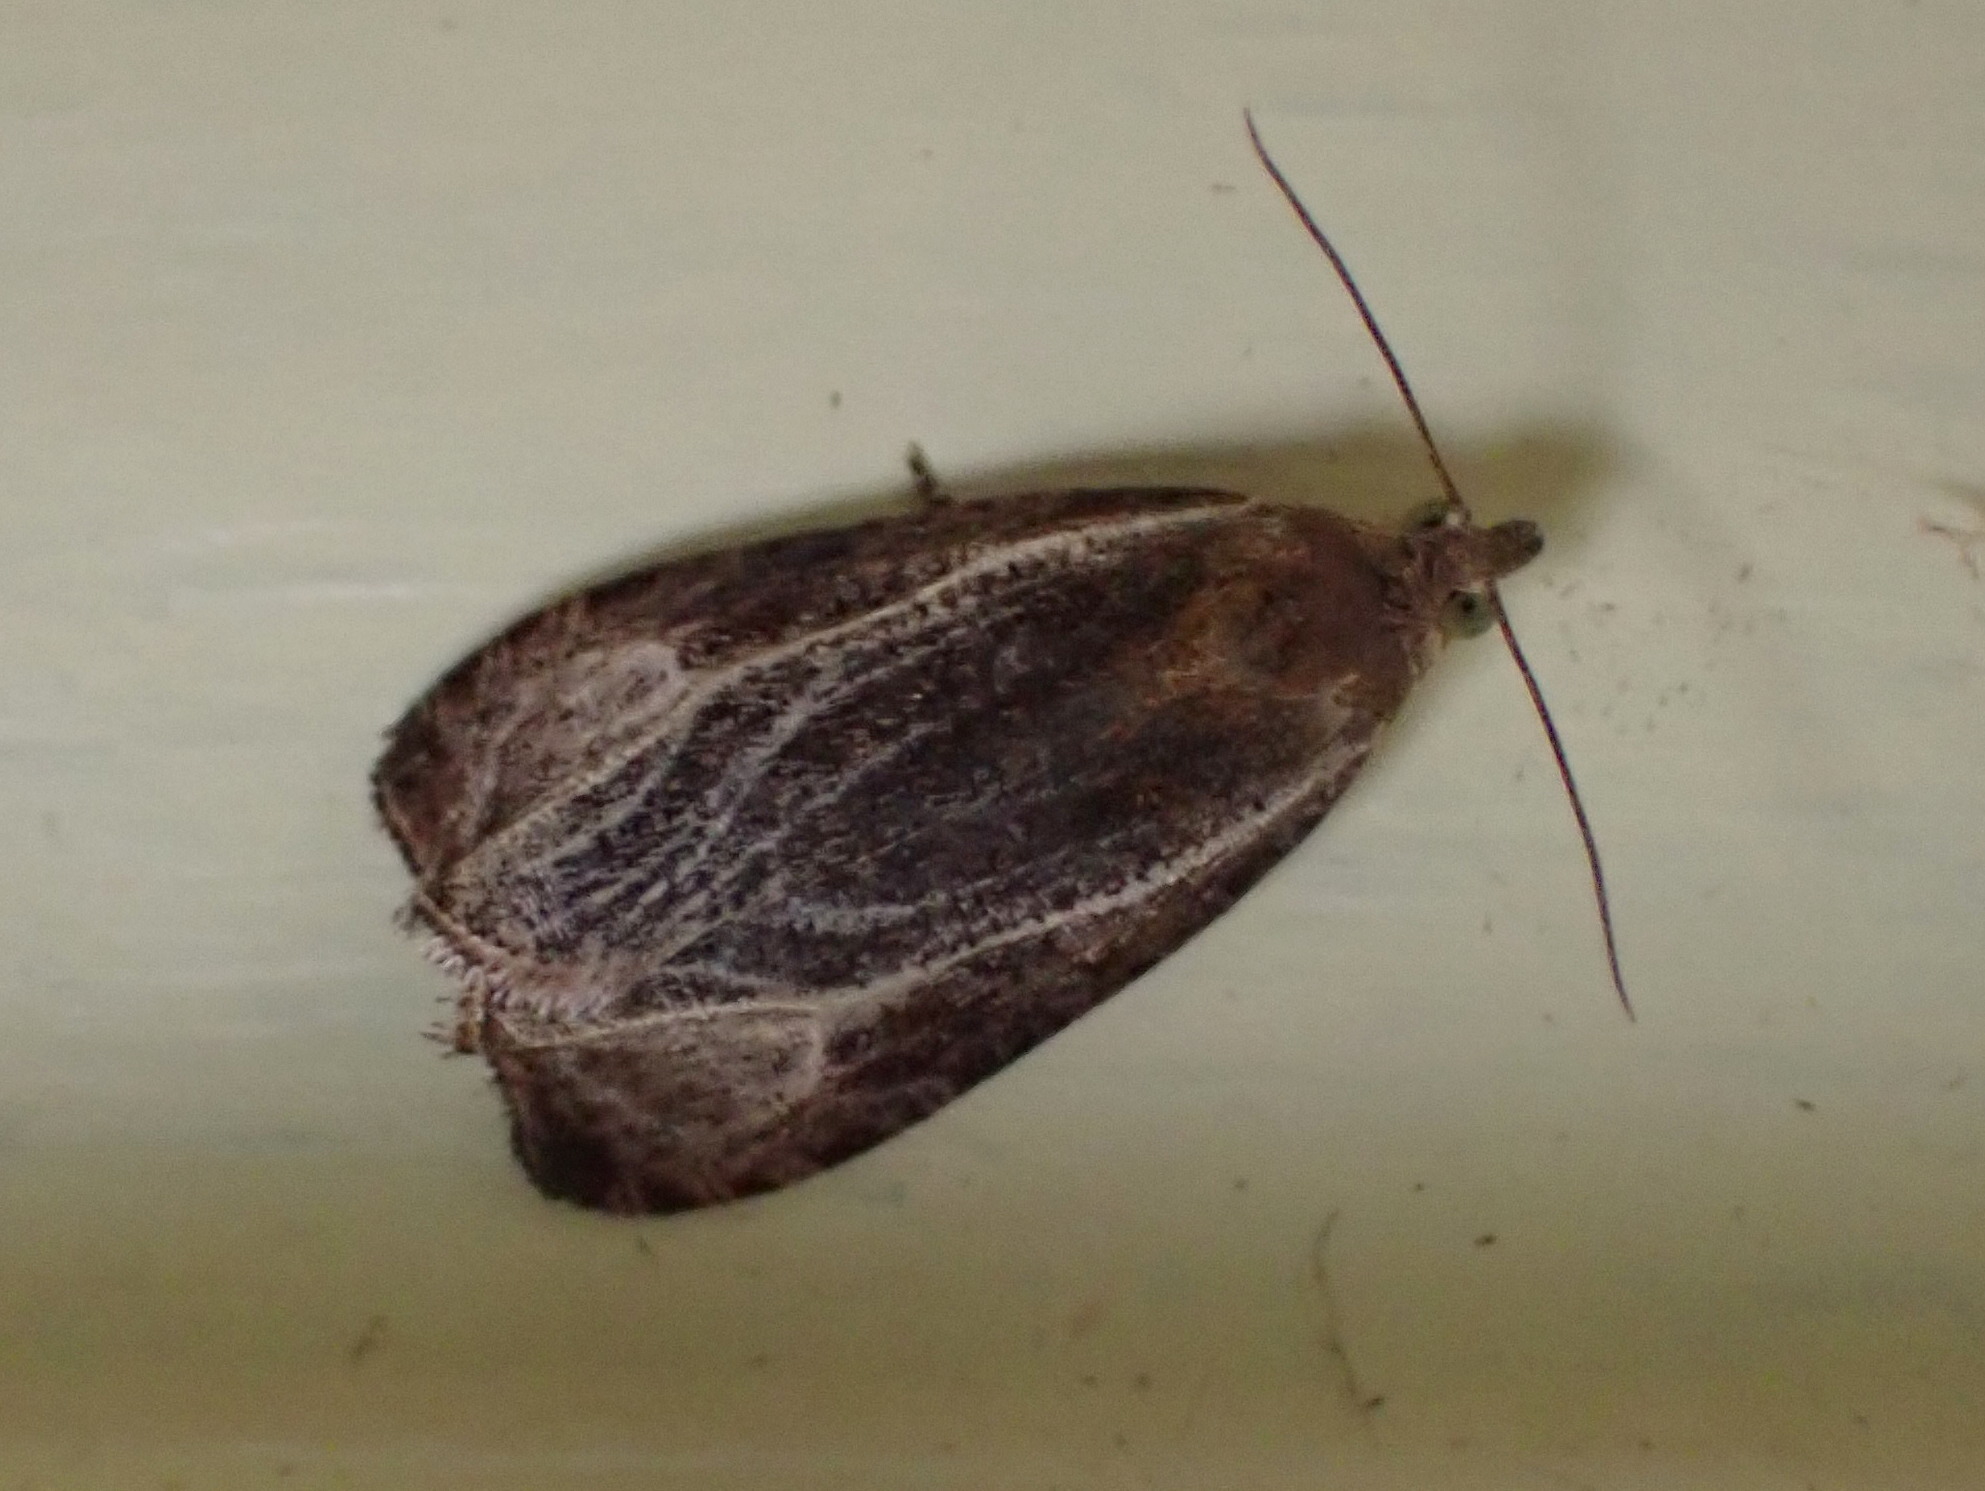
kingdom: Animalia
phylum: Arthropoda
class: Insecta
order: Lepidoptera
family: Tortricidae
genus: Olethreutes
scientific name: Olethreutes quadrifidum
